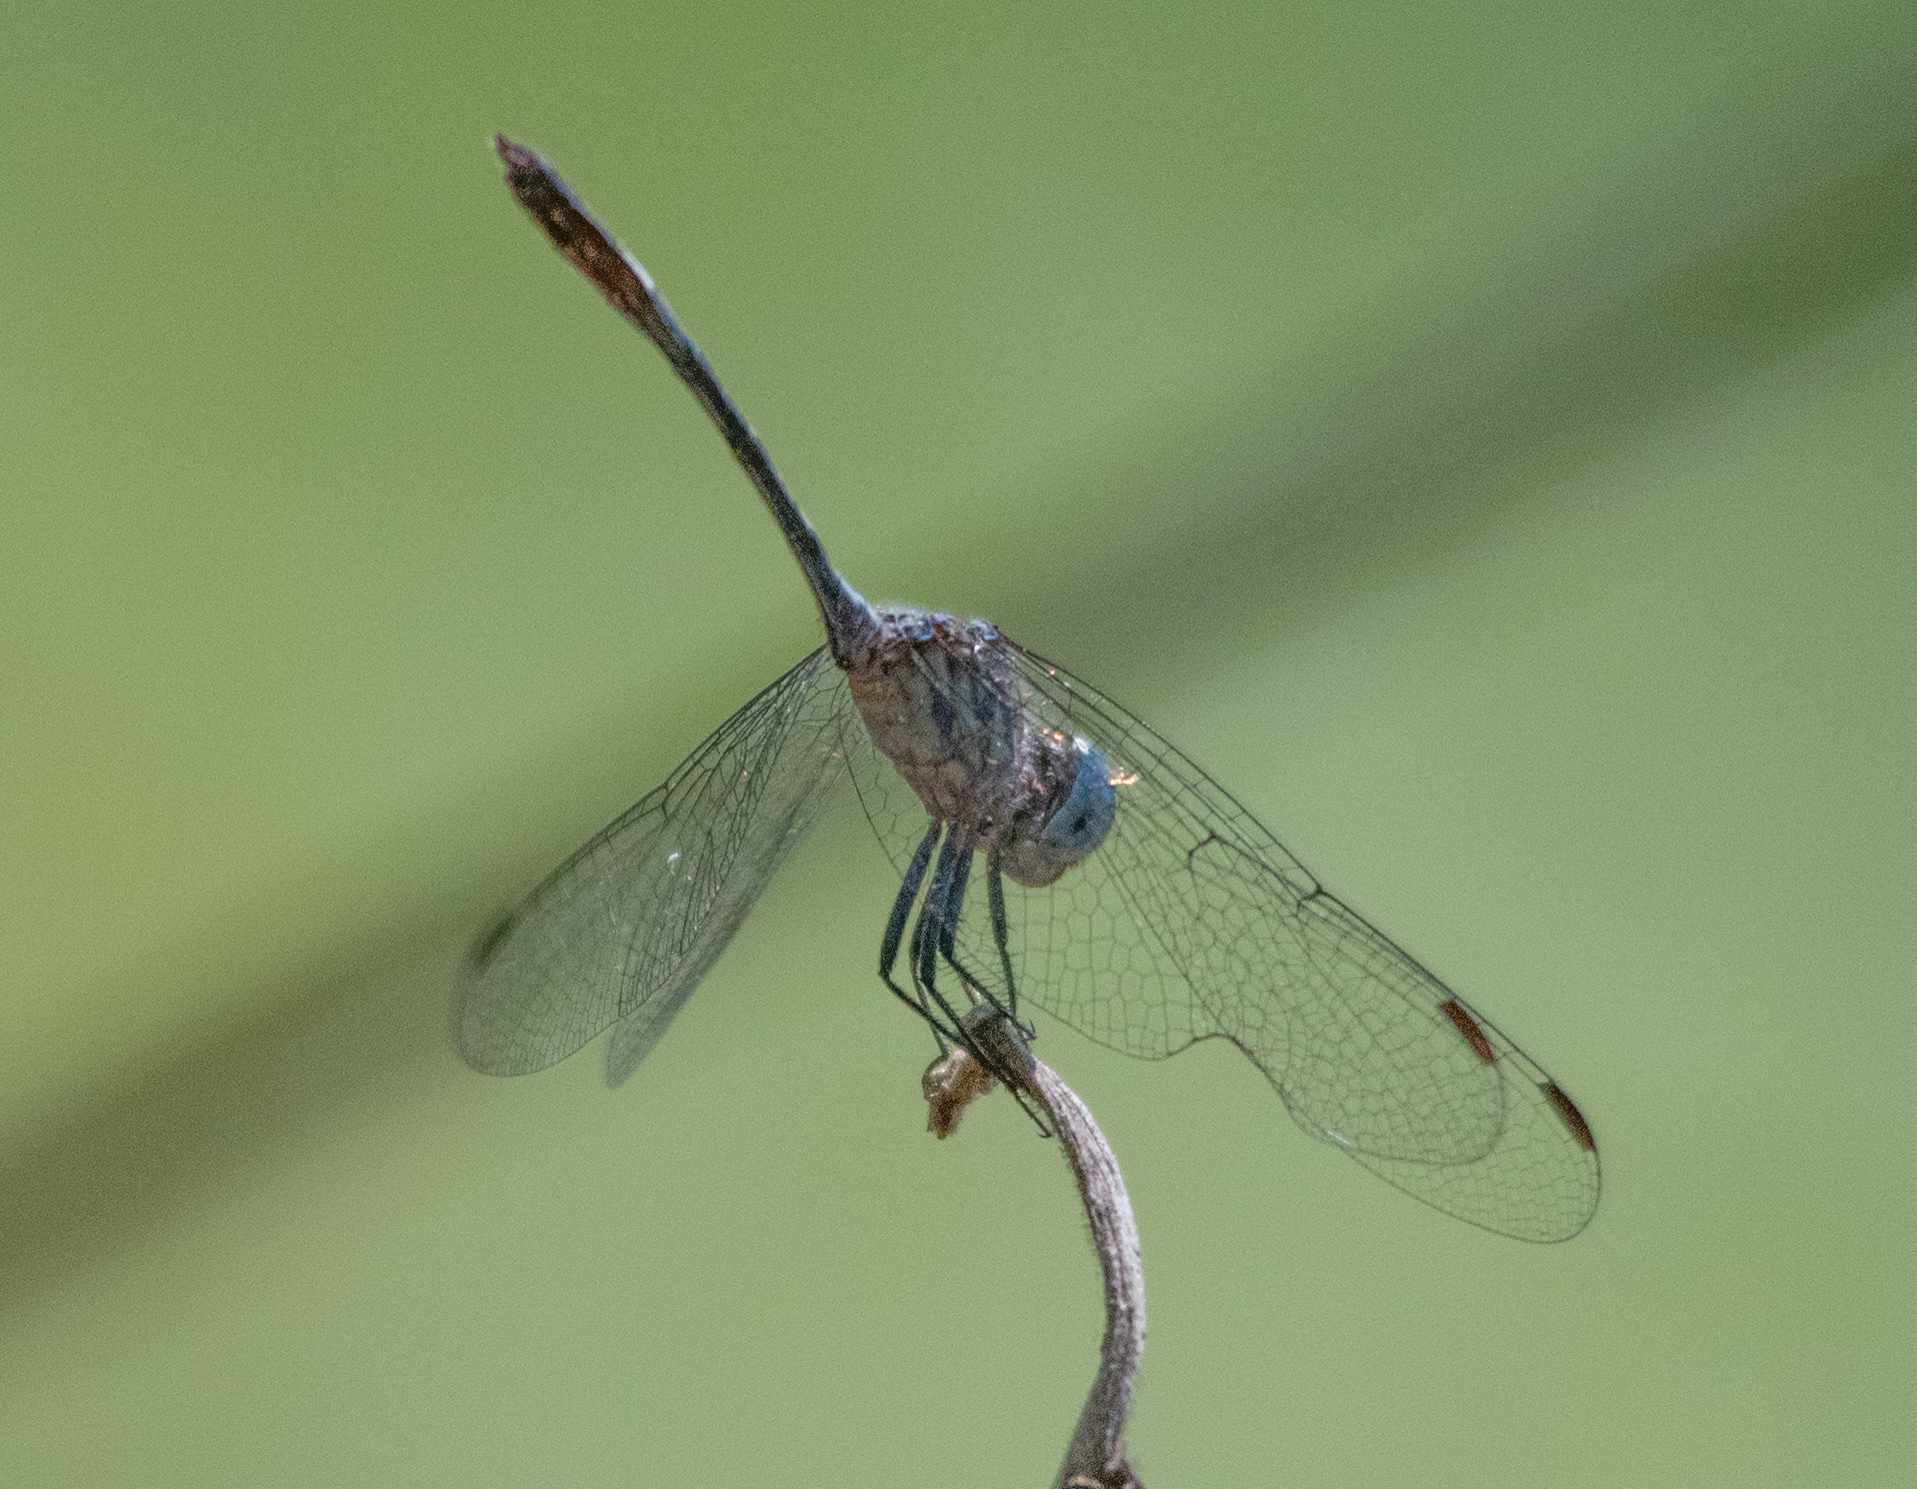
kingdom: Animalia
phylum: Arthropoda
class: Insecta
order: Odonata
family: Libellulidae
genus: Micrathyria
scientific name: Micrathyria ocellata
